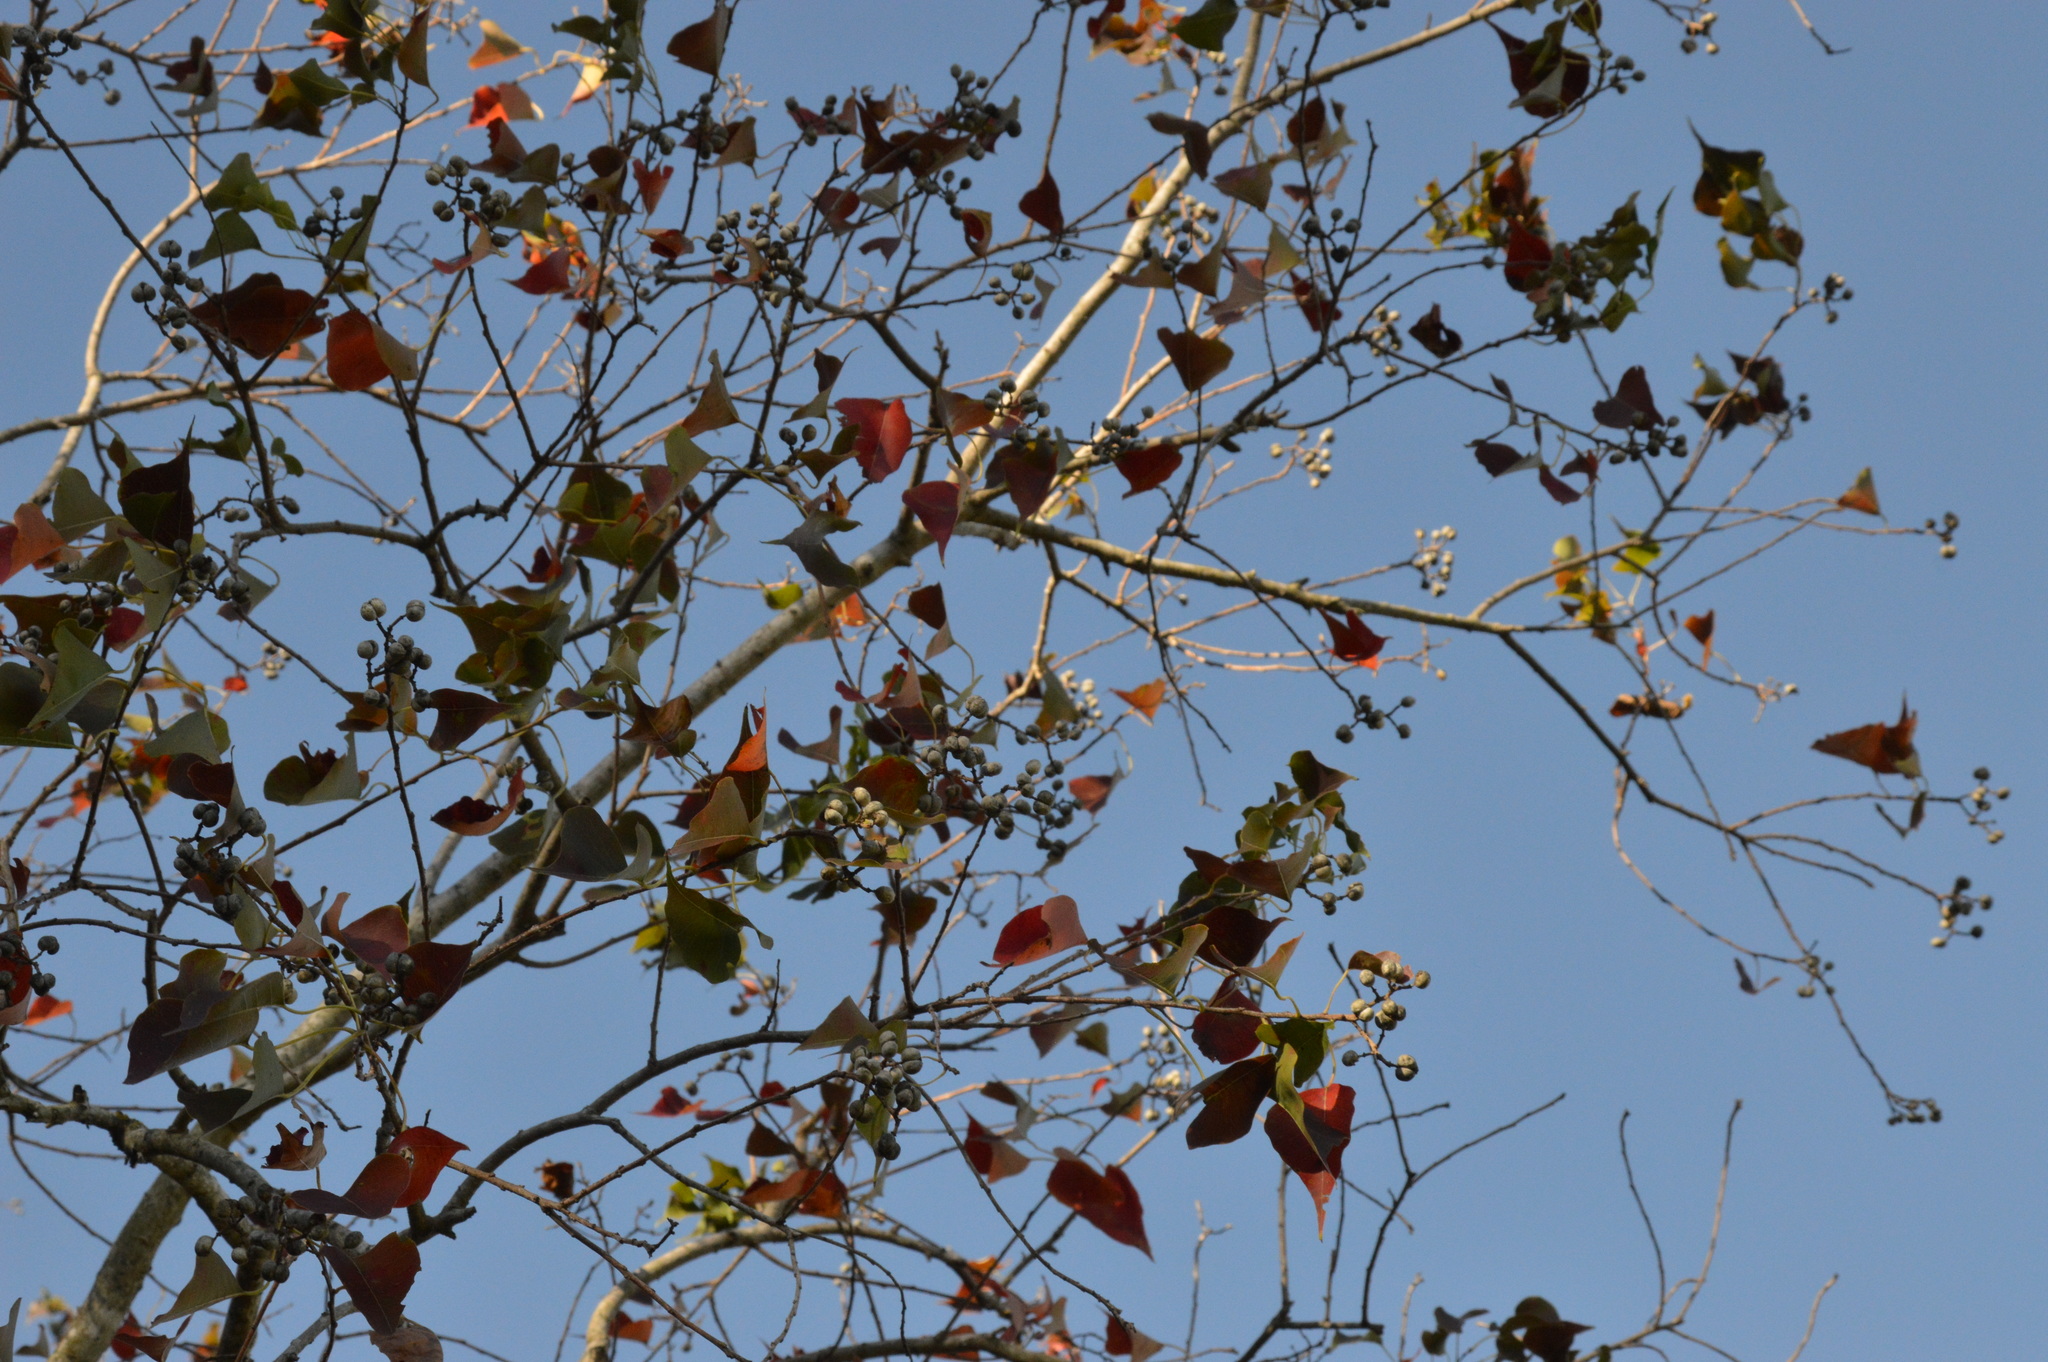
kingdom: Plantae
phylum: Tracheophyta
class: Magnoliopsida
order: Malpighiales
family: Euphorbiaceae
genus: Triadica
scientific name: Triadica sebifera
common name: Chinese tallow
